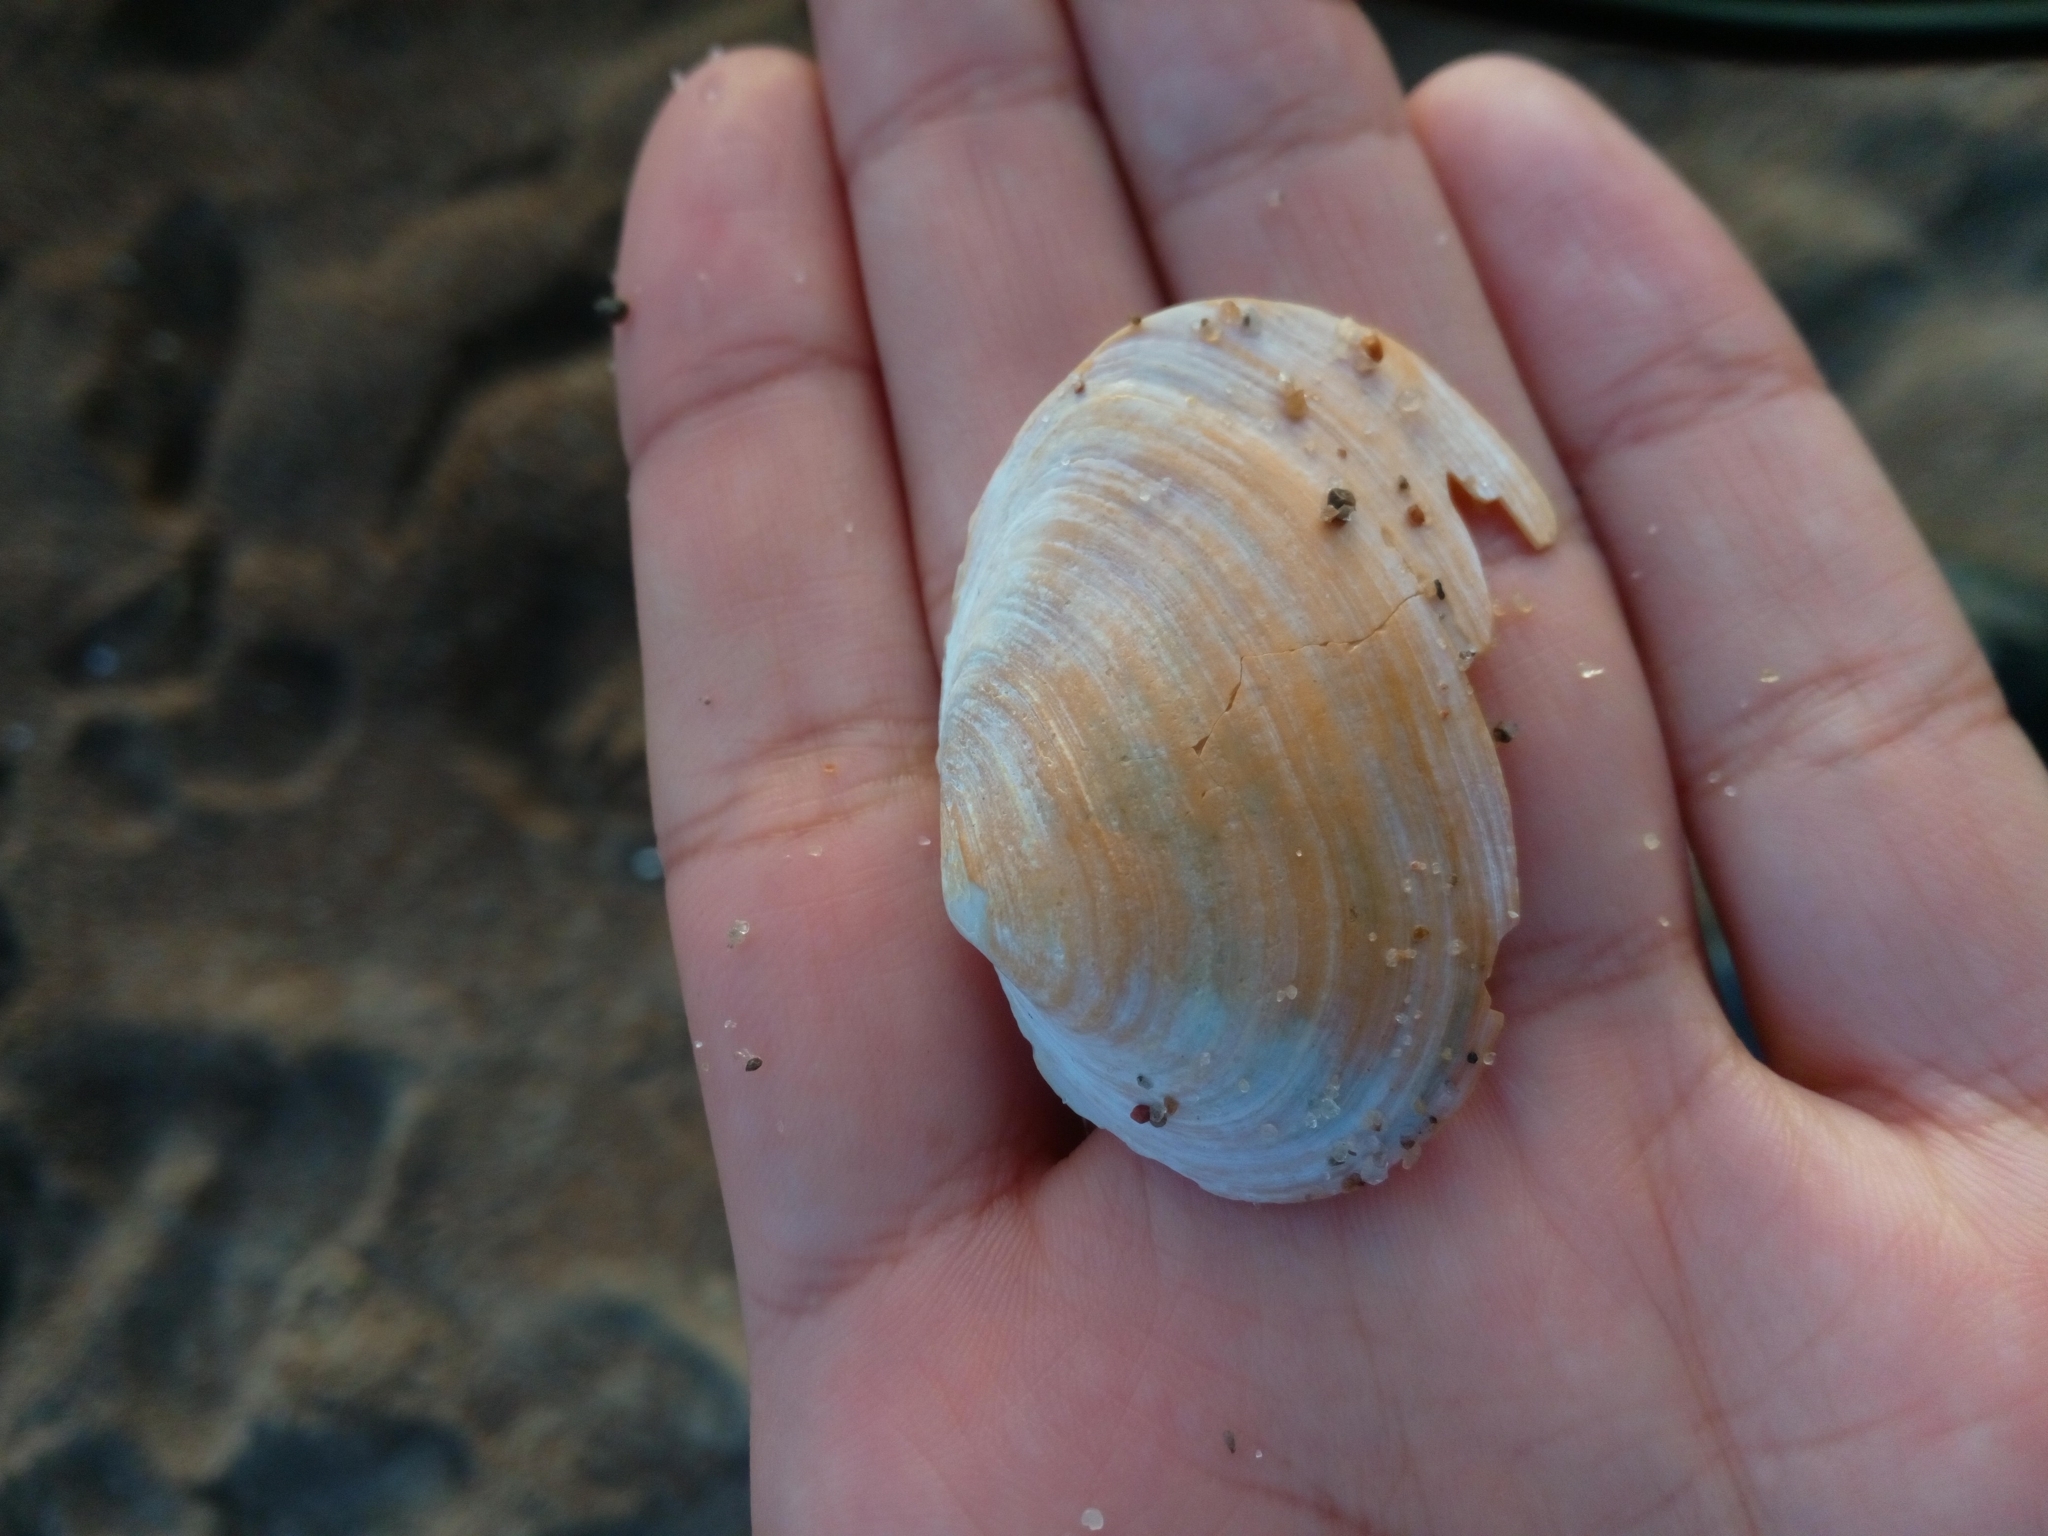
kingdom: Animalia
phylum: Mollusca
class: Bivalvia
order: Myida
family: Myidae
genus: Mya
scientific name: Mya arenaria
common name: Soft-shelled clam
